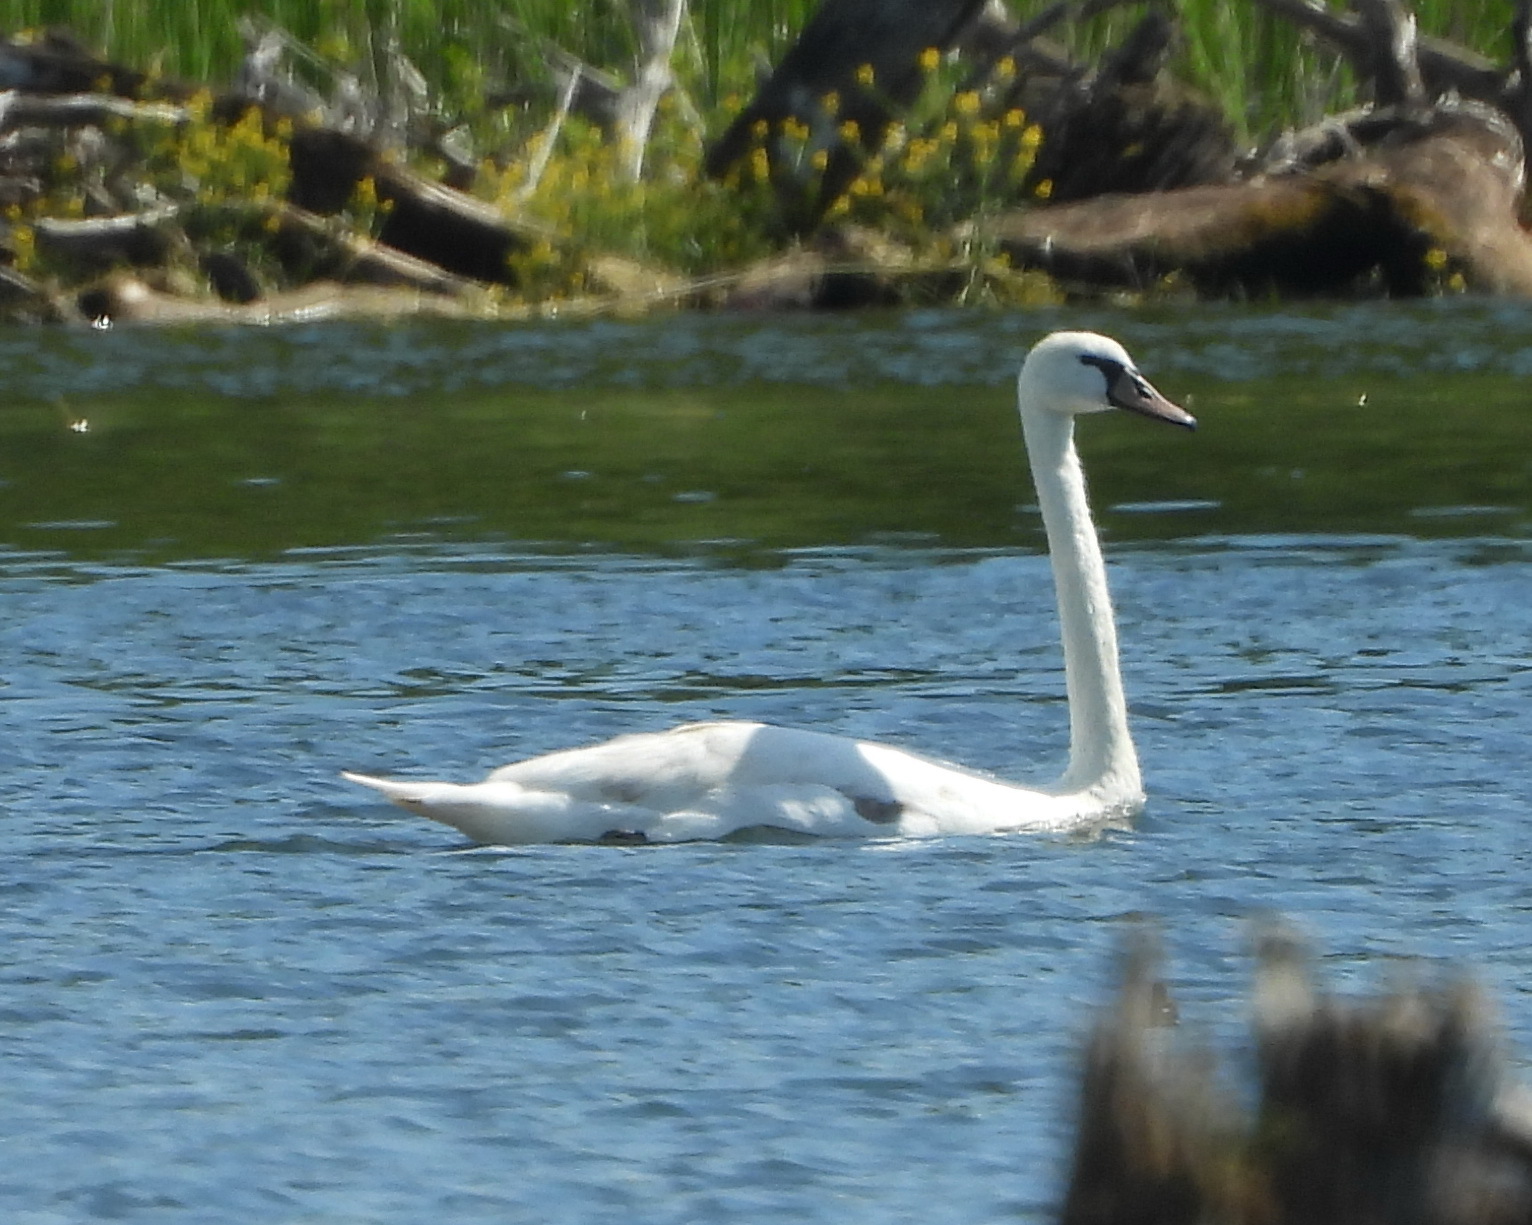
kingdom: Animalia
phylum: Chordata
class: Aves
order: Anseriformes
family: Anatidae
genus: Cygnus
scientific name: Cygnus olor
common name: Mute swan
